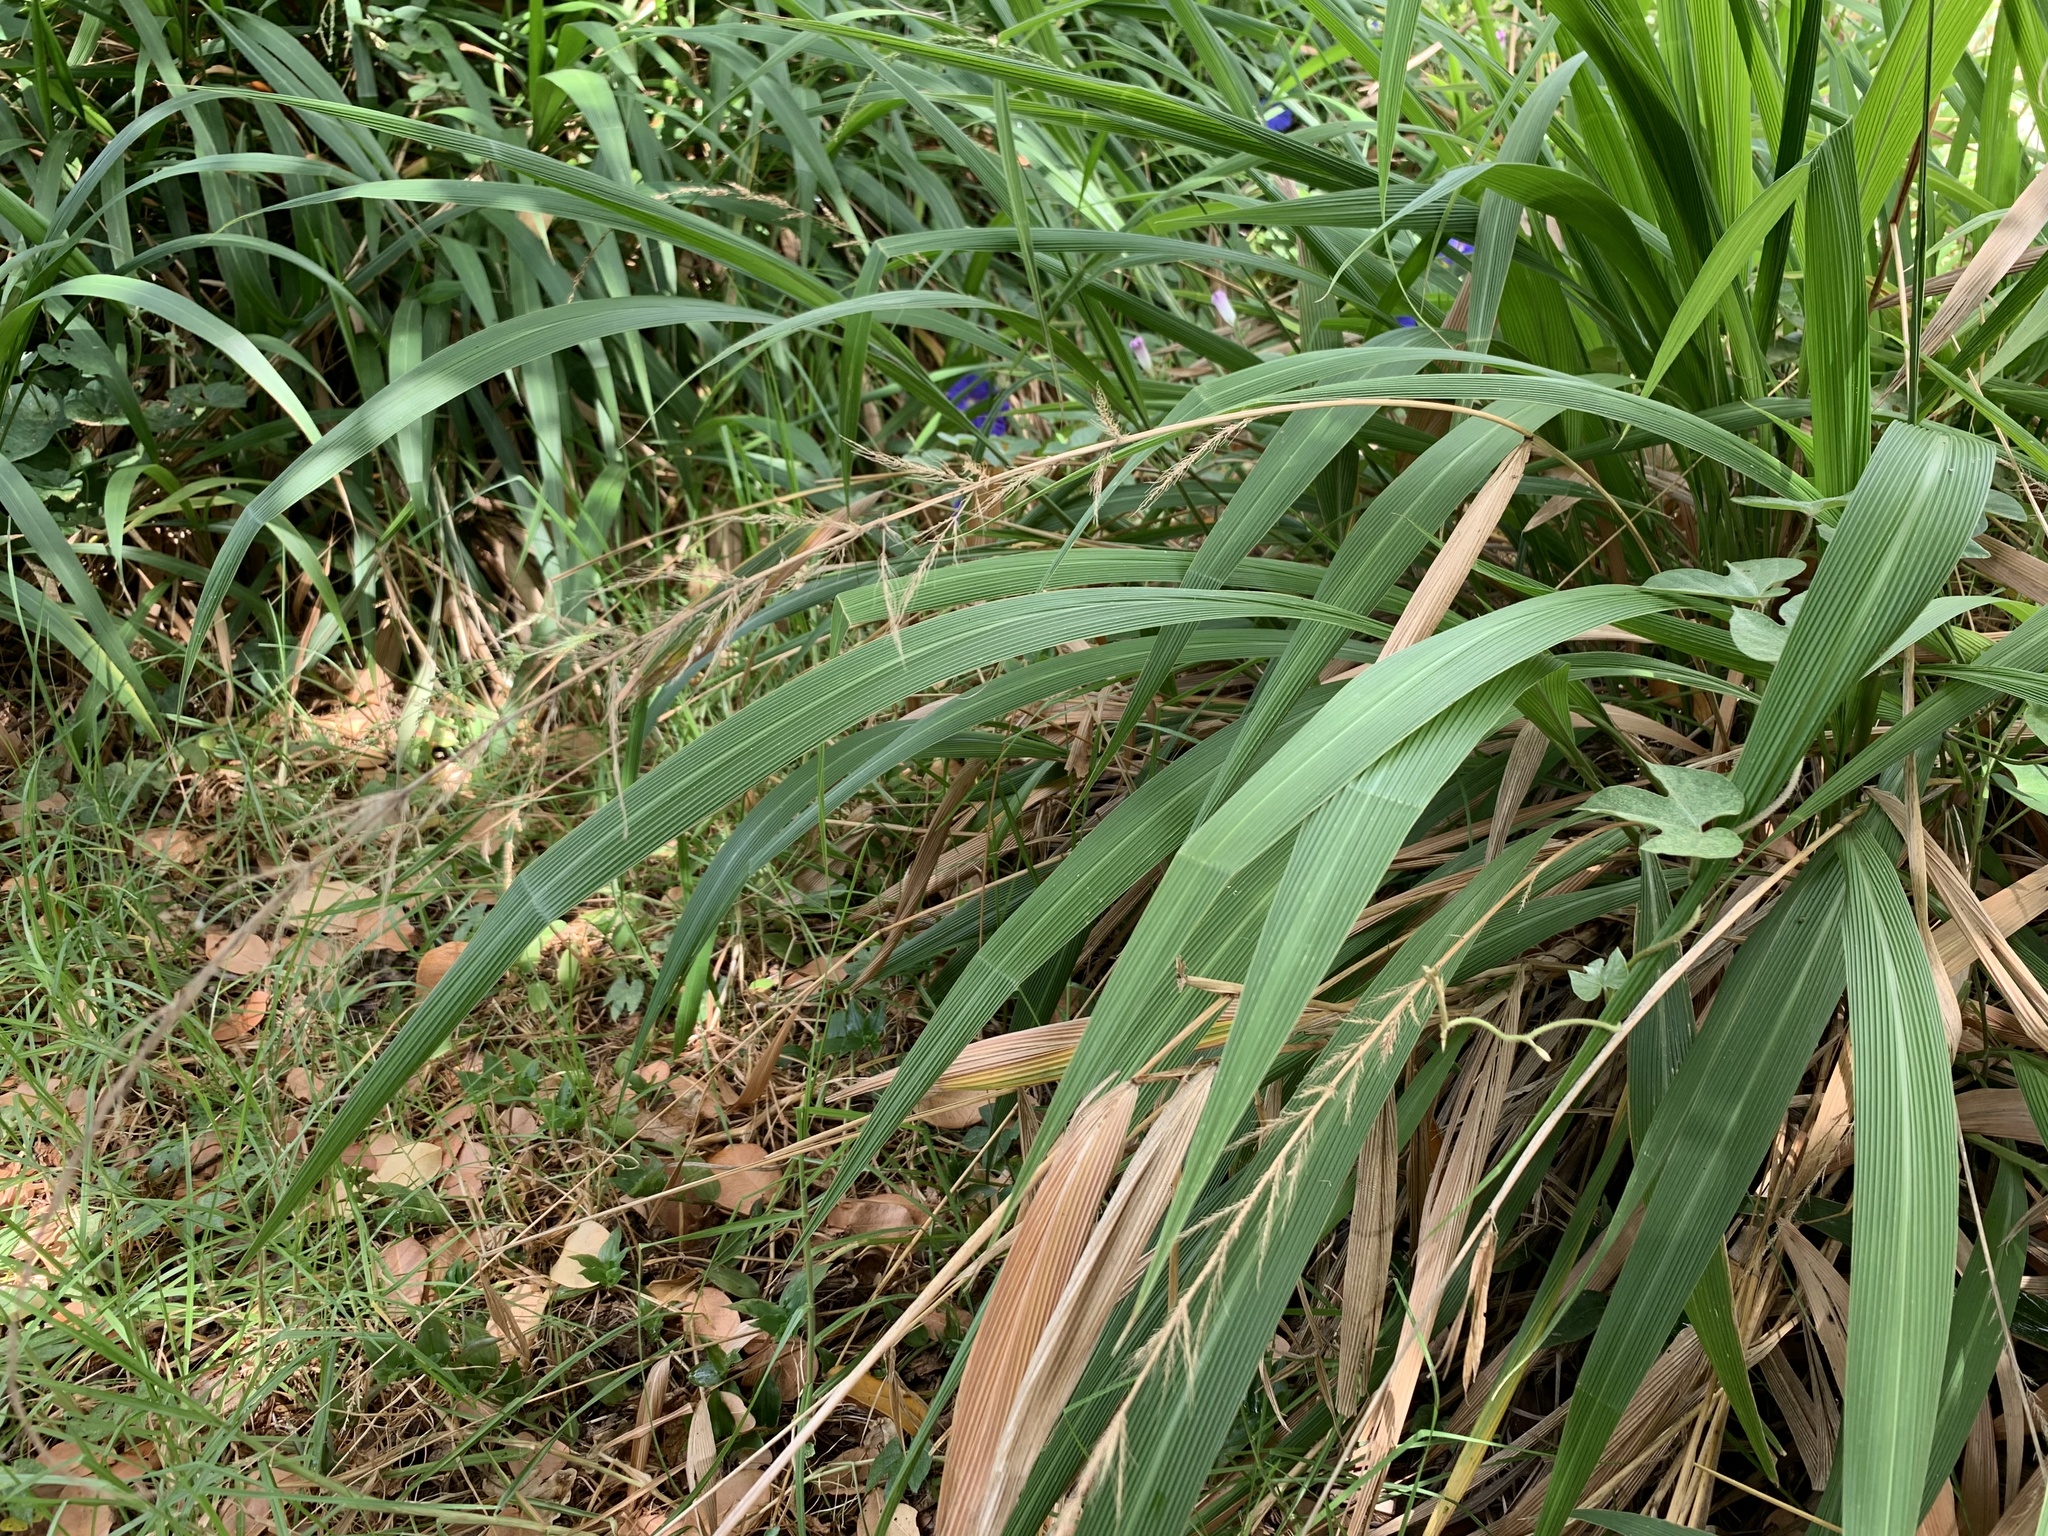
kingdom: Plantae
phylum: Tracheophyta
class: Liliopsida
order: Poales
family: Poaceae
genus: Setaria
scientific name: Setaria megaphylla
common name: Bigleaf bristlegrass
